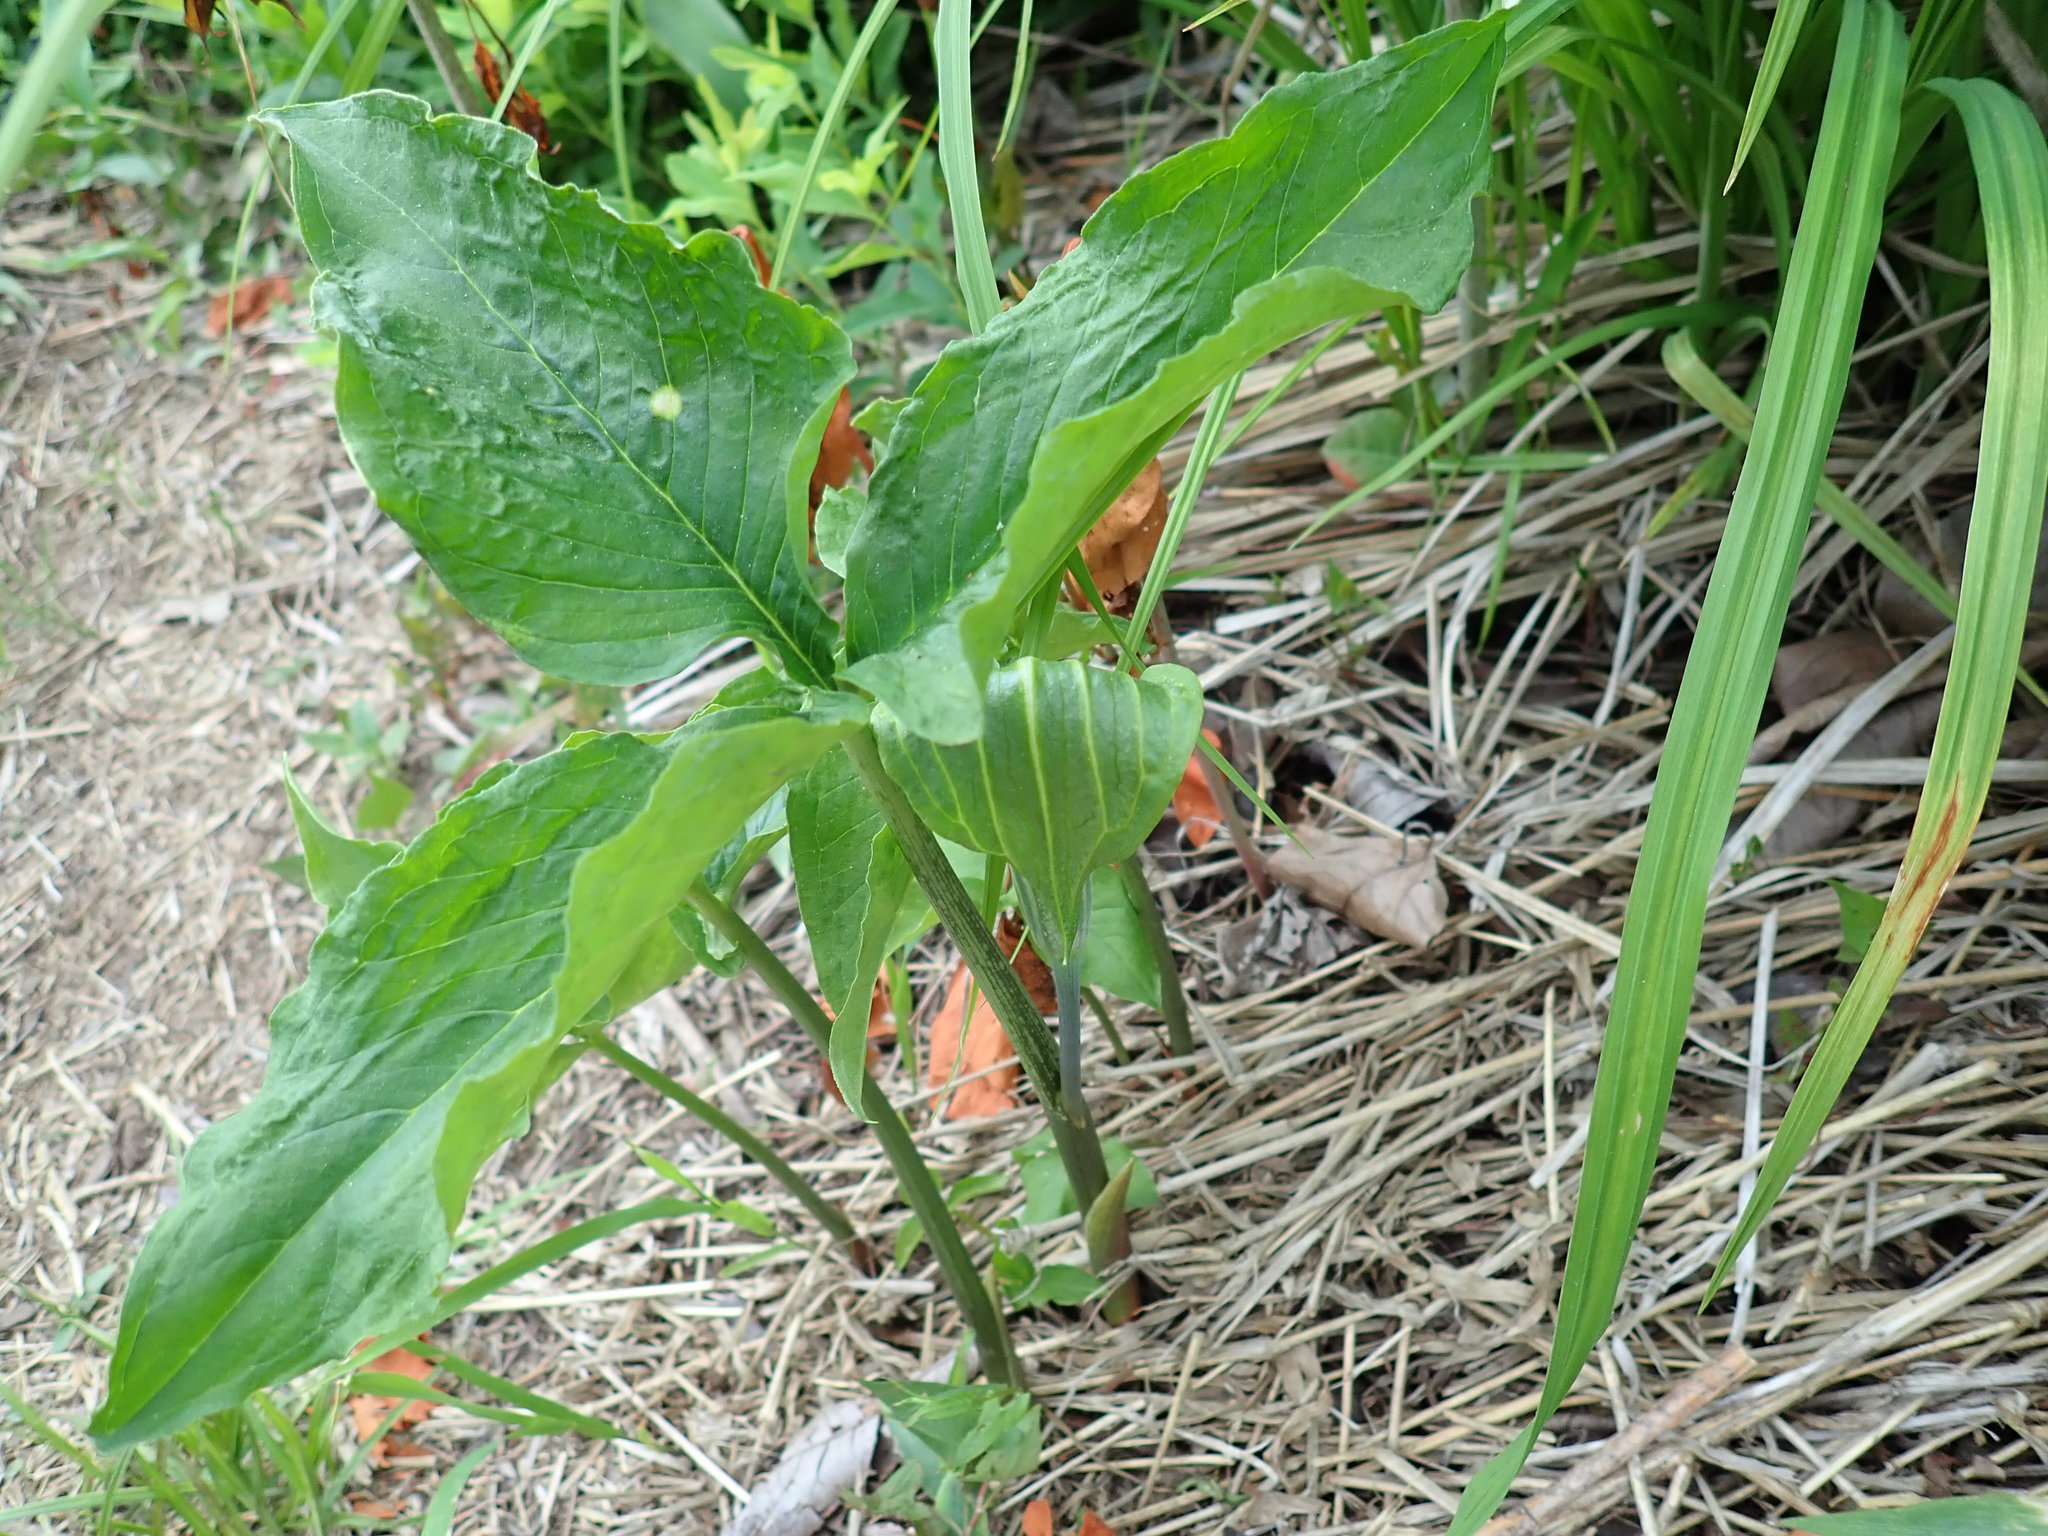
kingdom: Plantae
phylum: Tracheophyta
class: Liliopsida
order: Alismatales
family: Araceae
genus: Arisaema
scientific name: Arisaema triphyllum
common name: Jack-in-the-pulpit
